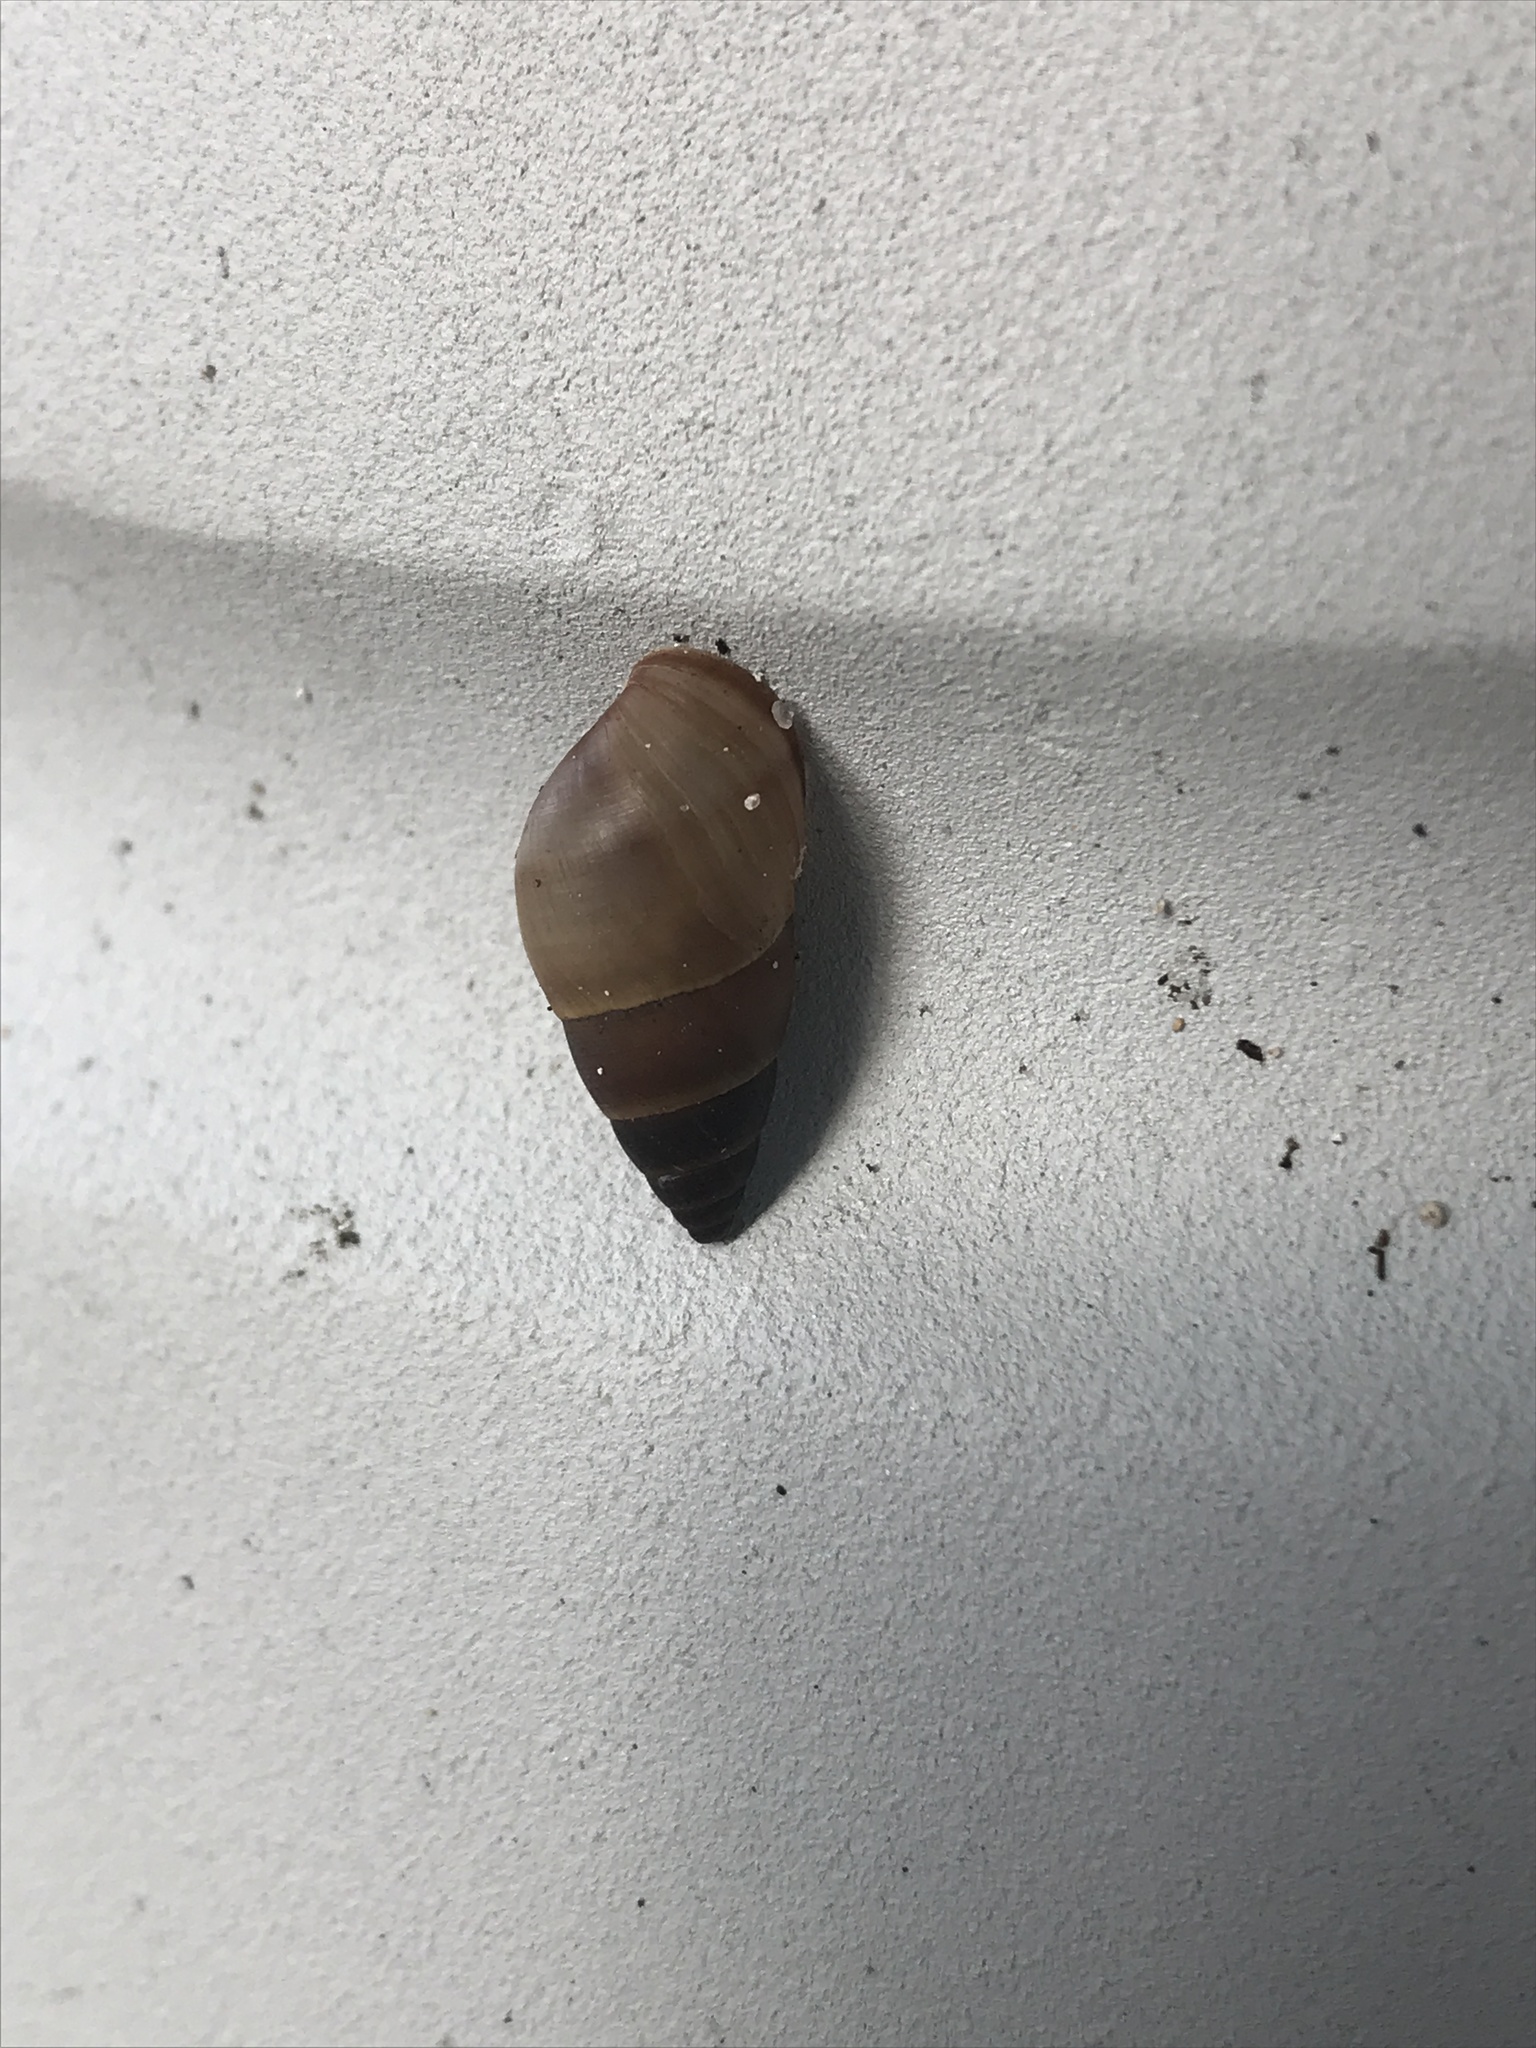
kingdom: Animalia
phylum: Mollusca
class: Gastropoda
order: Stylommatophora
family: Bulimulidae
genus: Bulimulus
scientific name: Bulimulus guadalupensis
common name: West indian bulimulus
